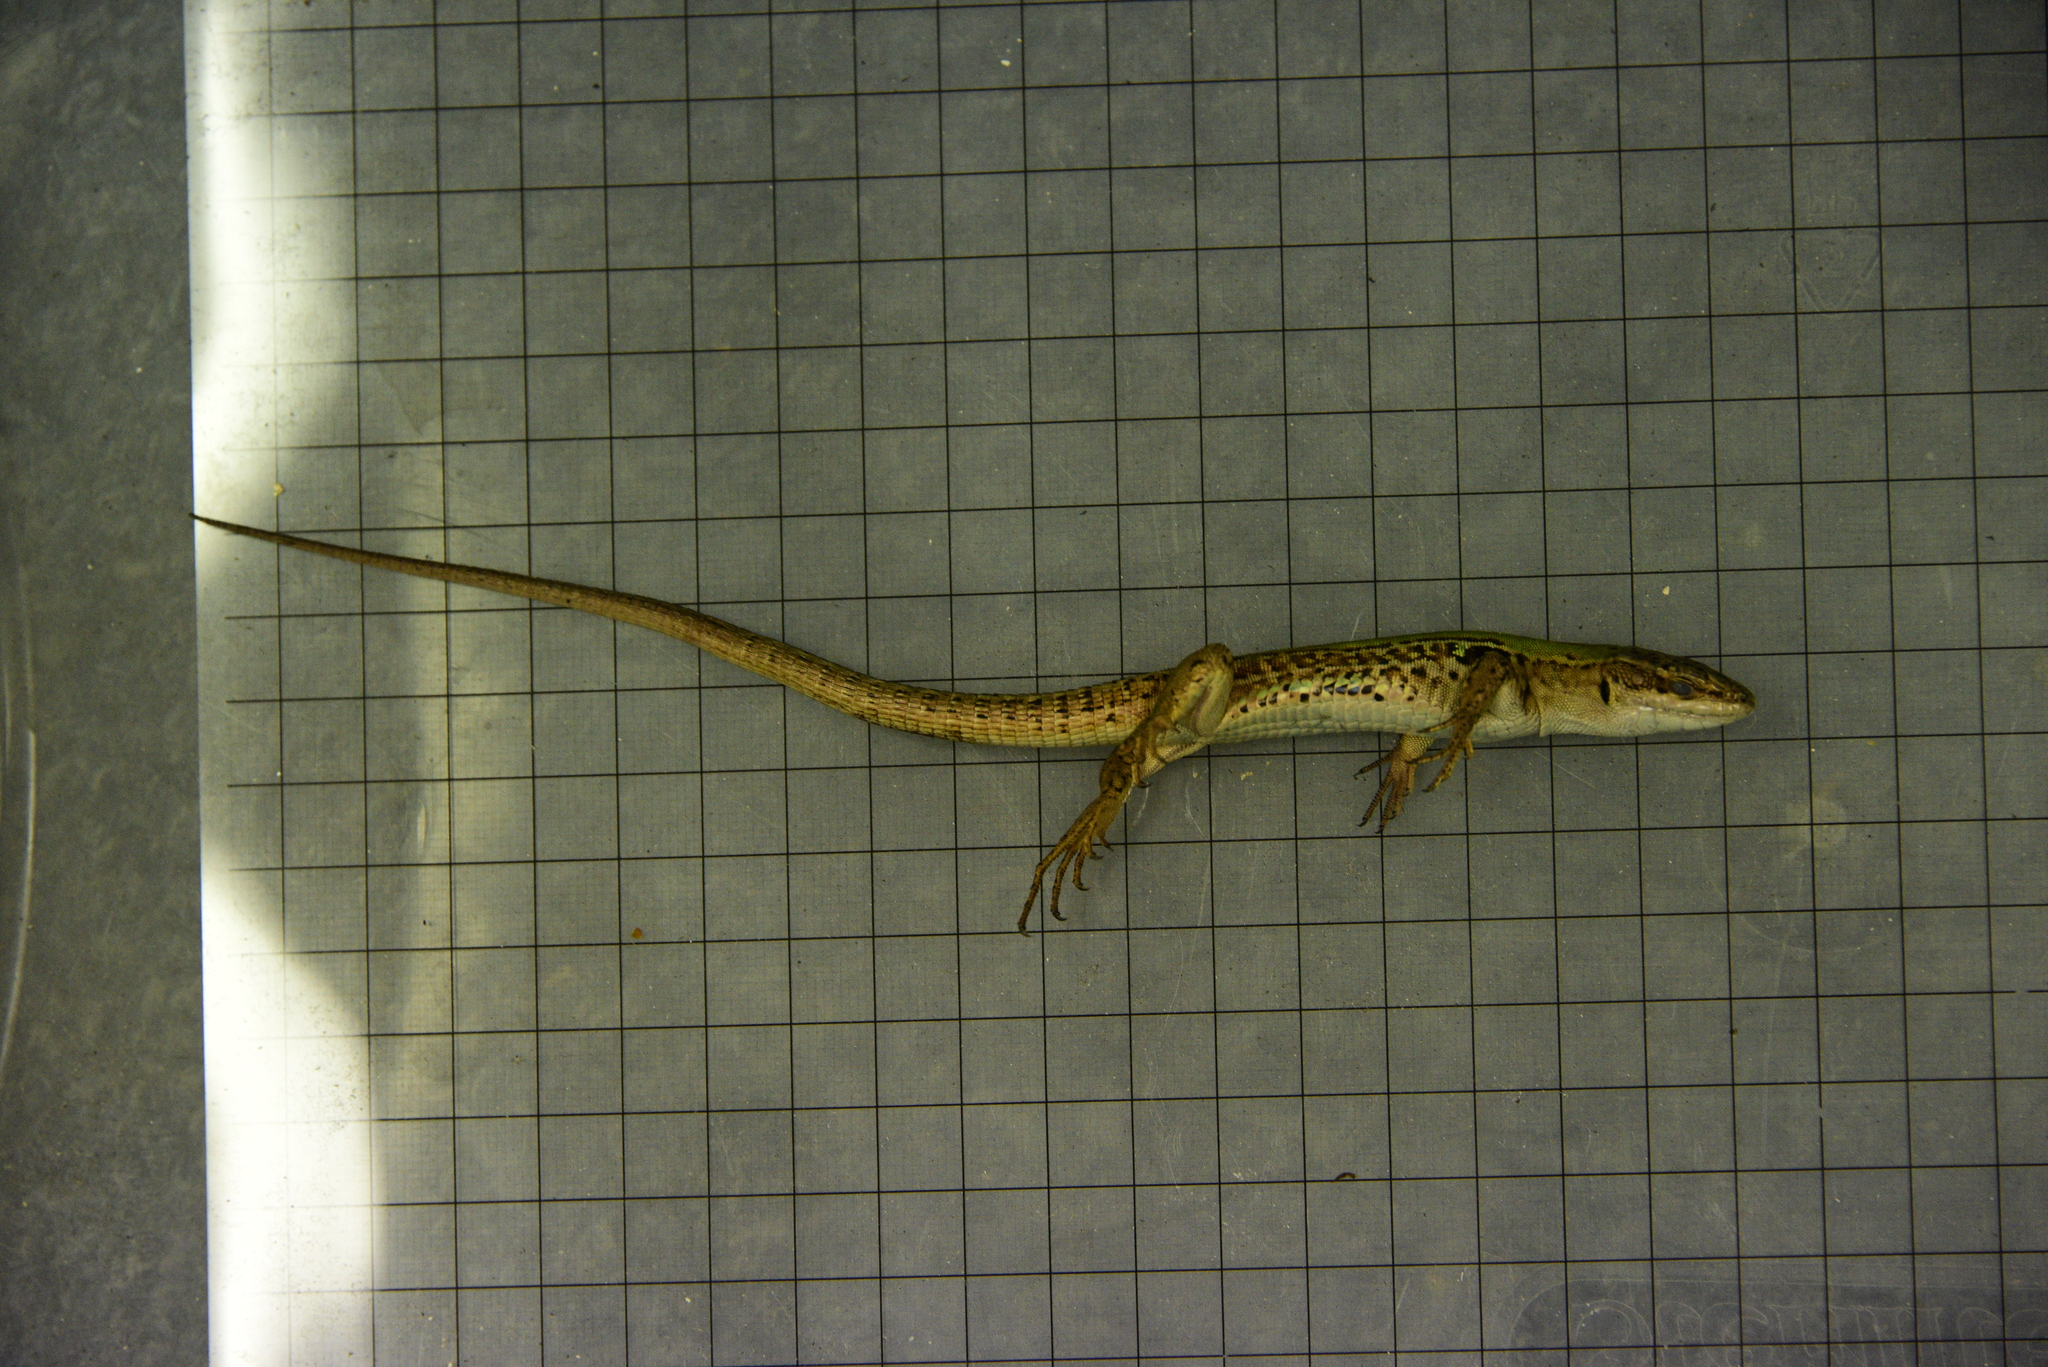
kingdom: Animalia
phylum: Chordata
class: Squamata
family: Lacertidae
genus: Podarcis
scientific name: Podarcis siculus
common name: Italian wall lizard
